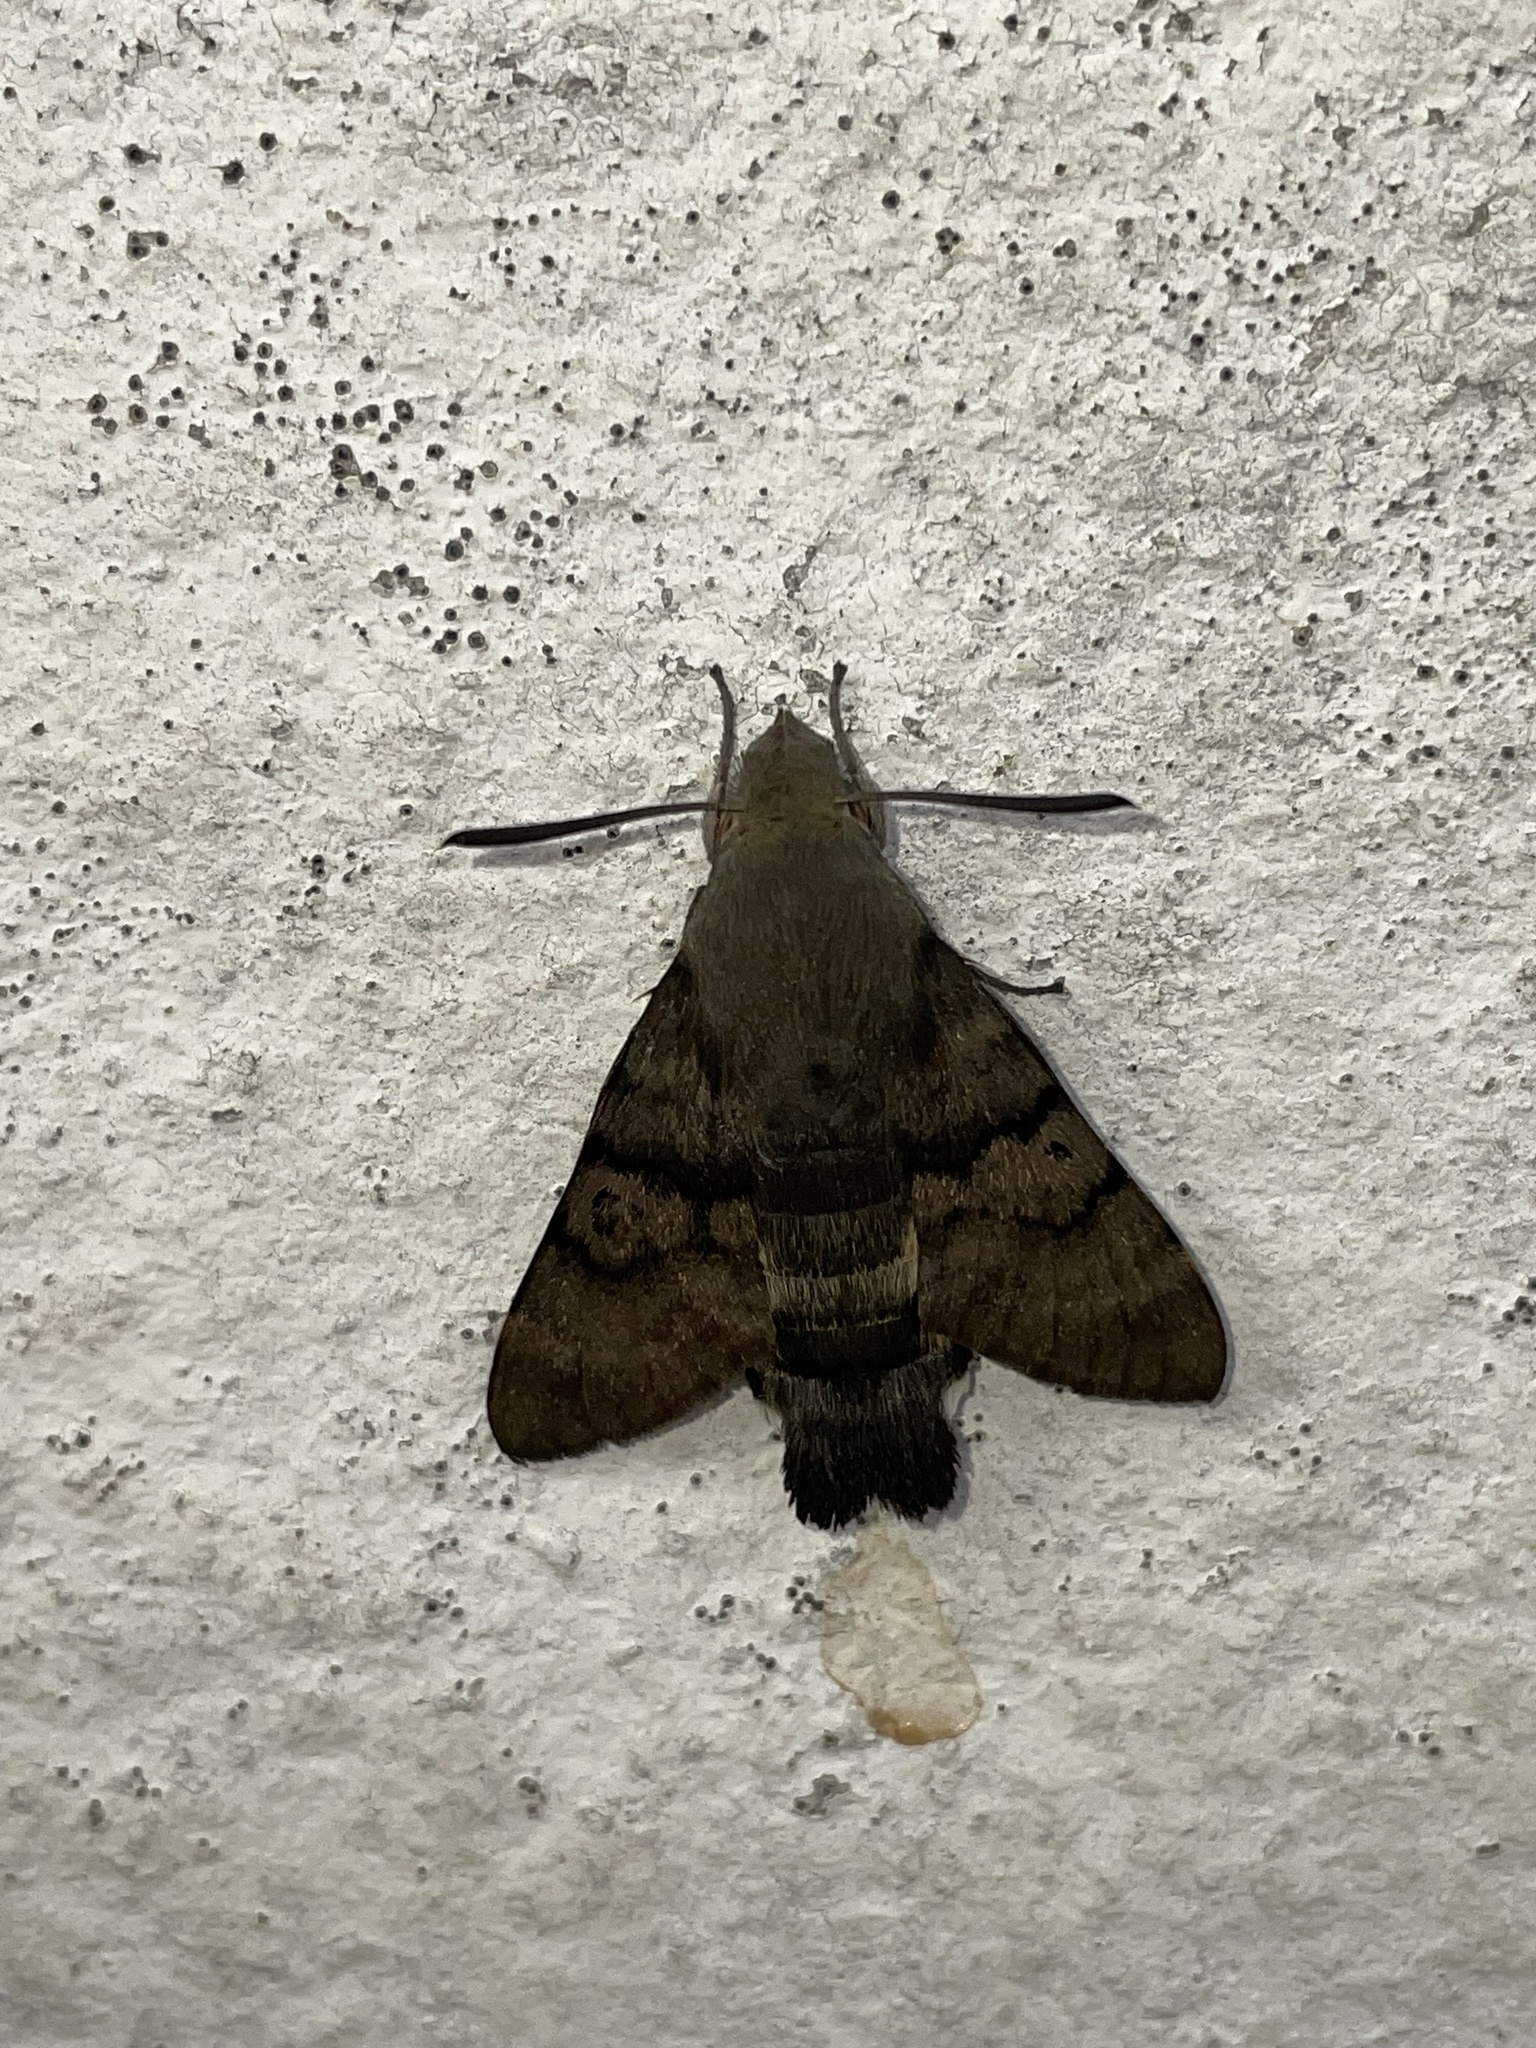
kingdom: Animalia
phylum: Arthropoda
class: Insecta
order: Lepidoptera
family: Sphingidae
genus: Macroglossum
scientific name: Macroglossum stellatarum
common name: Humming-bird hawk-moth
